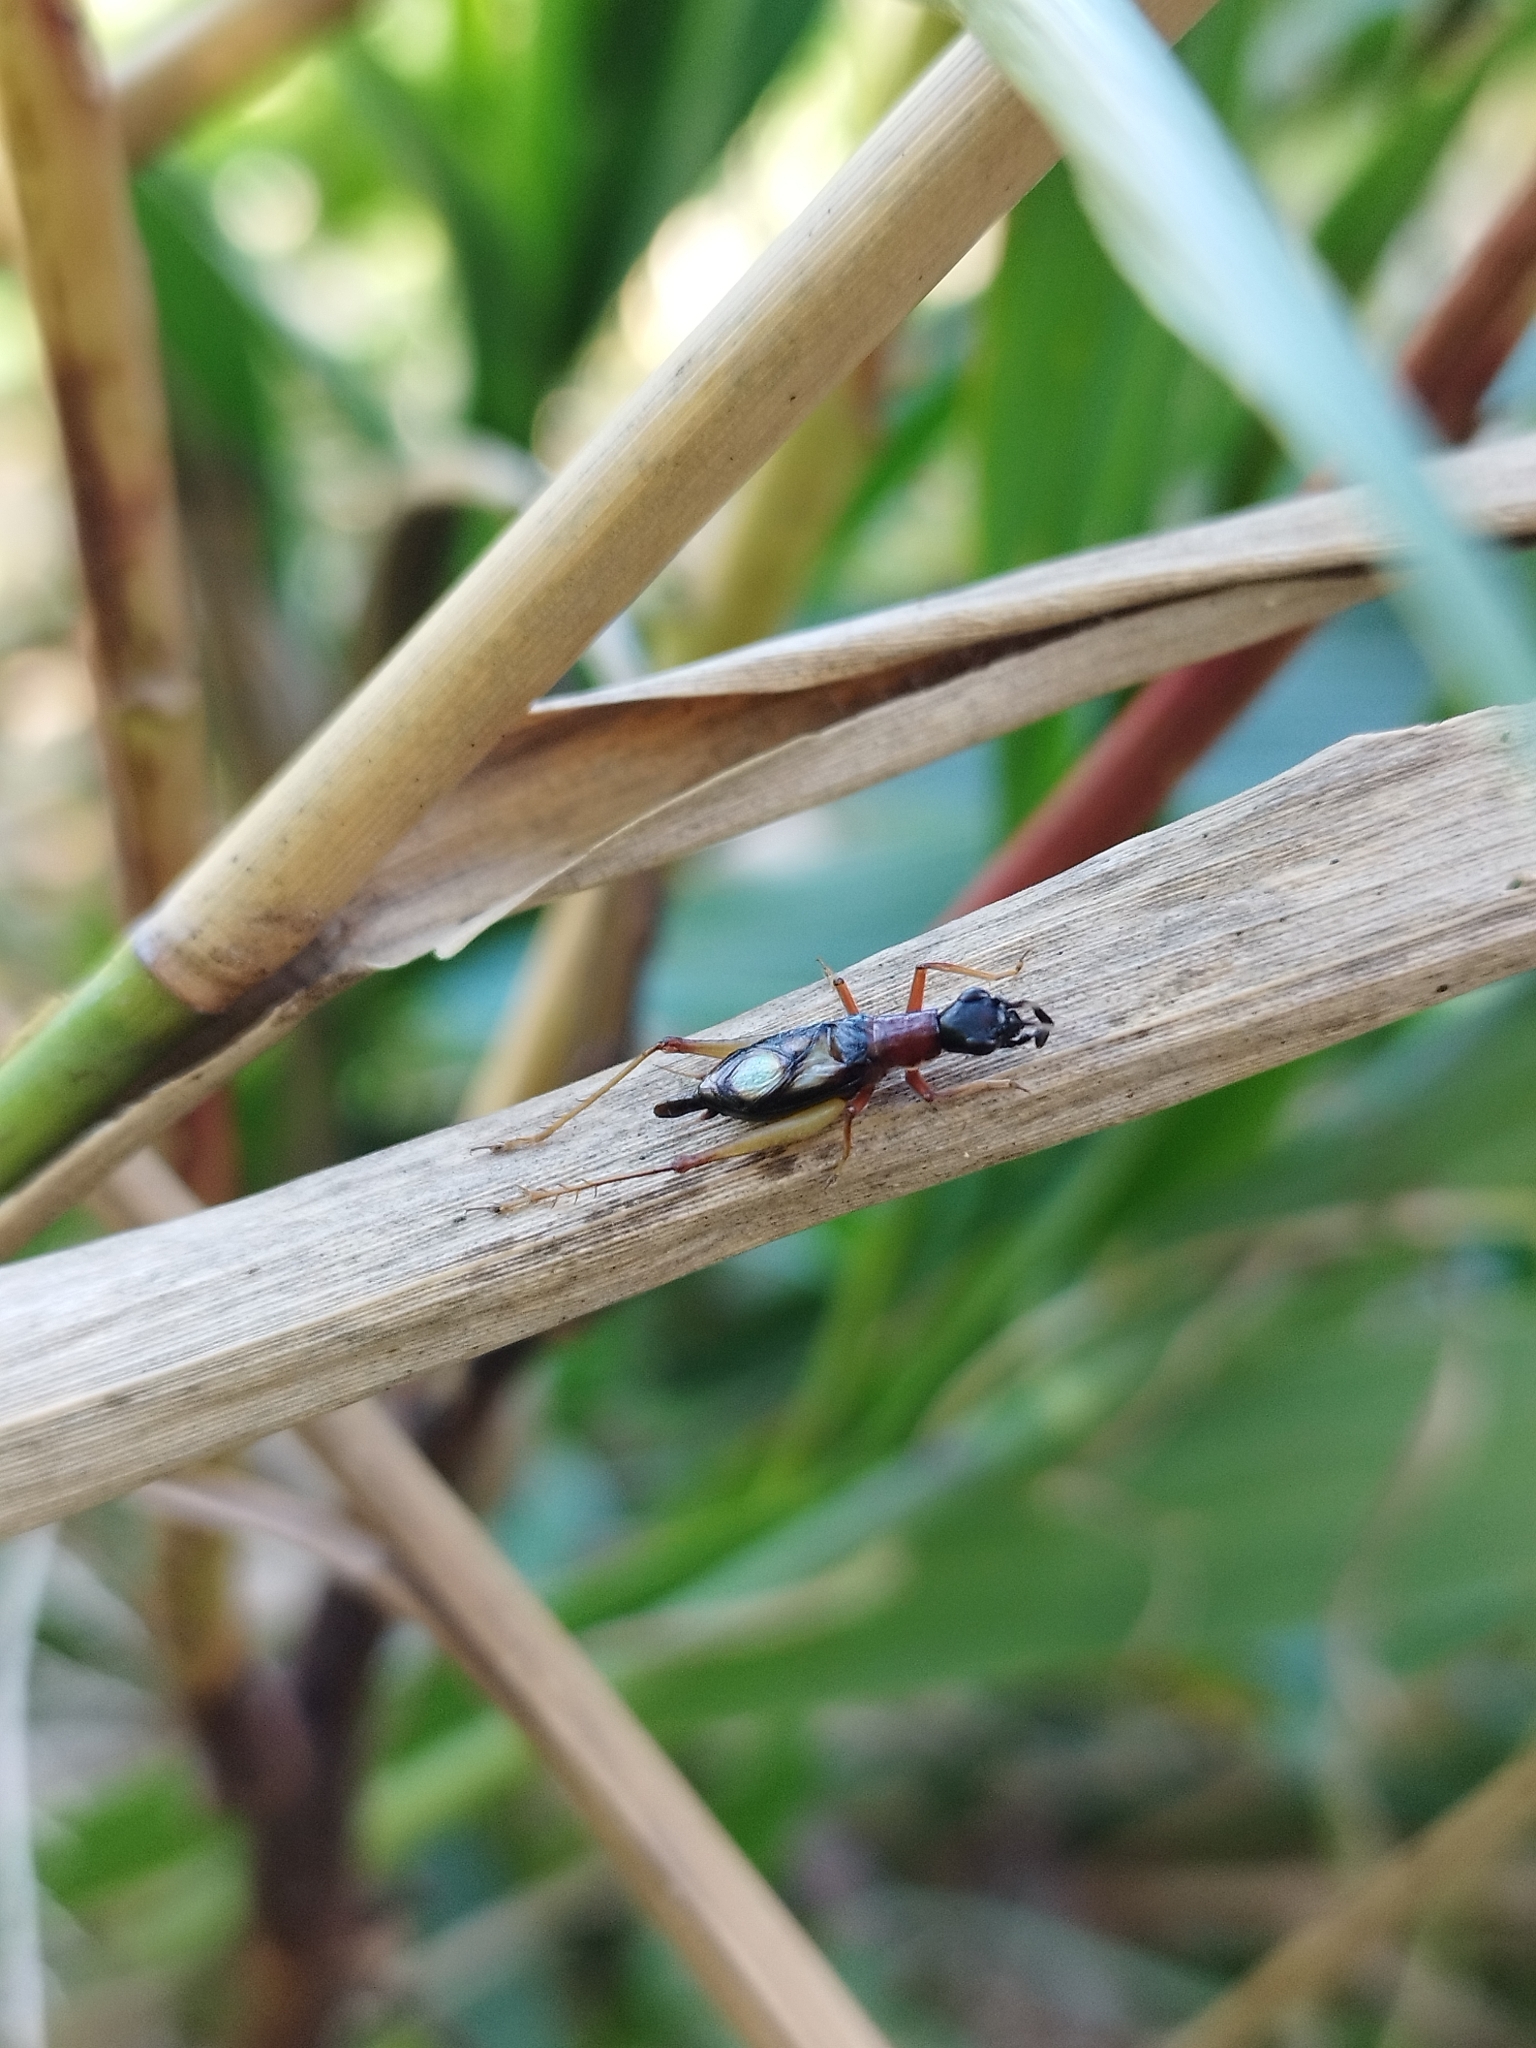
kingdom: Animalia
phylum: Arthropoda
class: Insecta
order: Orthoptera
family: Trigonidiidae
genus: Cranistus
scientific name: Cranistus colliurides
